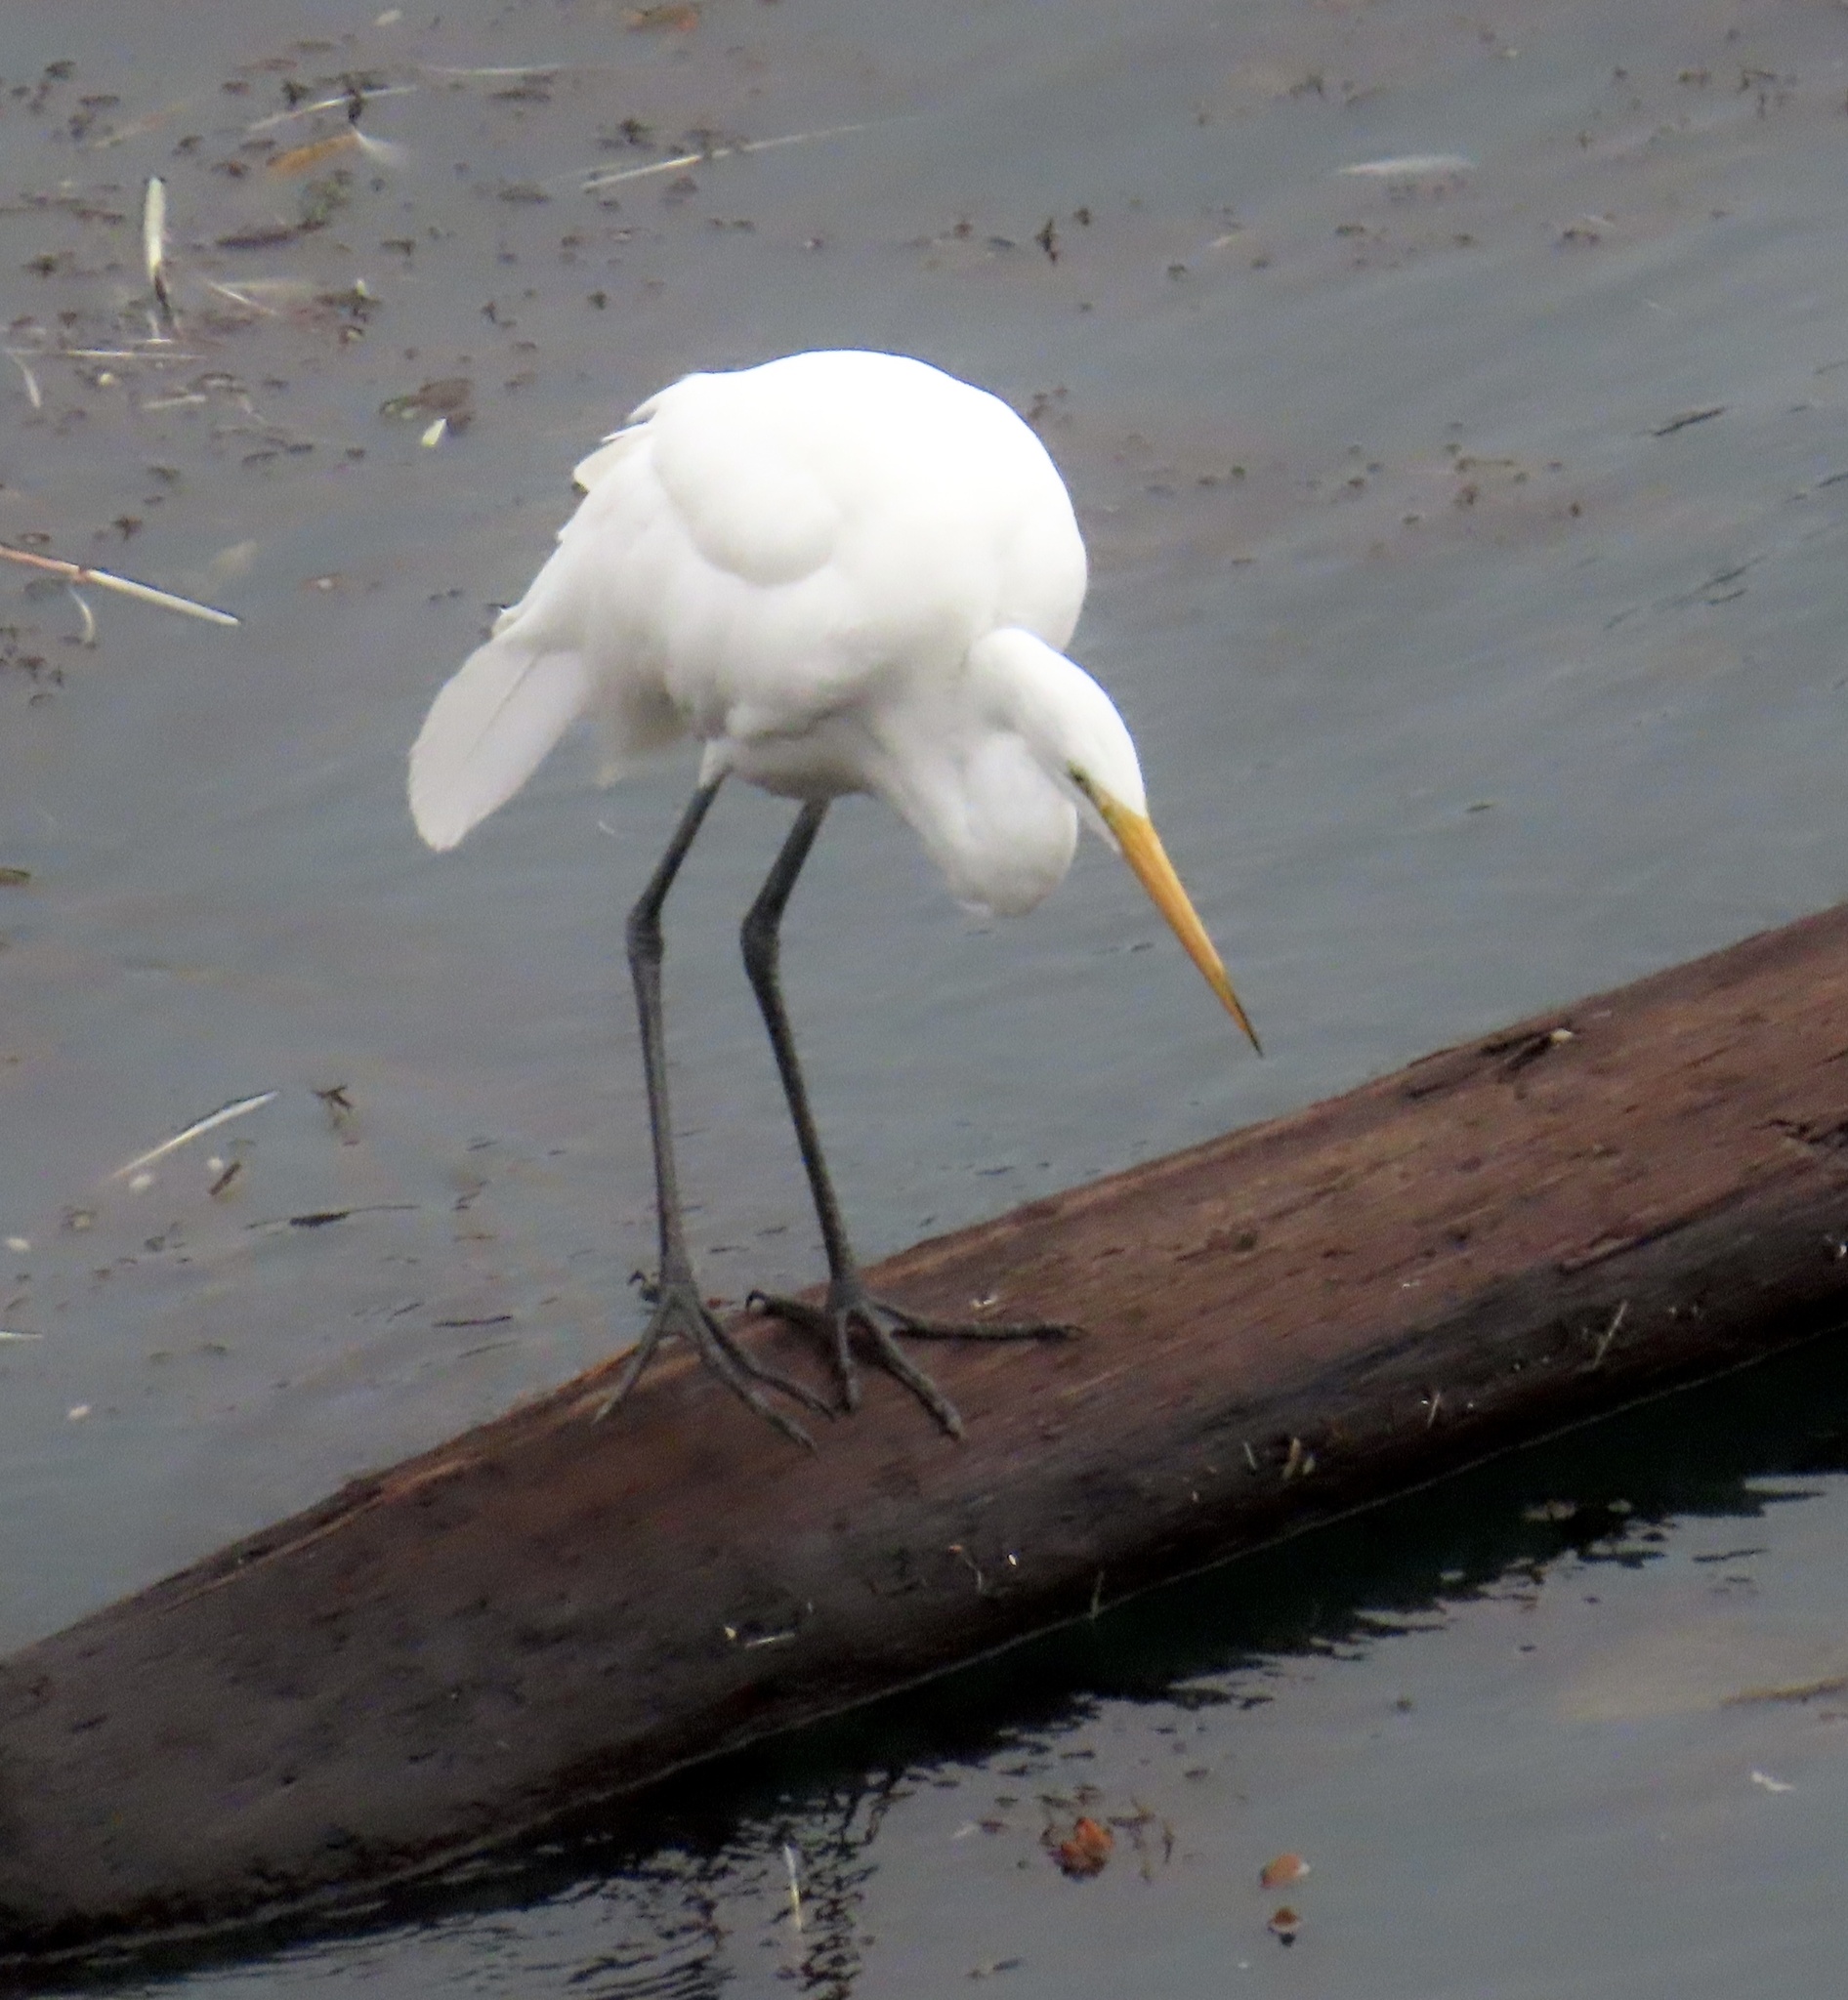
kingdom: Animalia
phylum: Chordata
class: Aves
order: Pelecaniformes
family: Ardeidae
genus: Ardea
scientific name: Ardea alba
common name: Great egret
